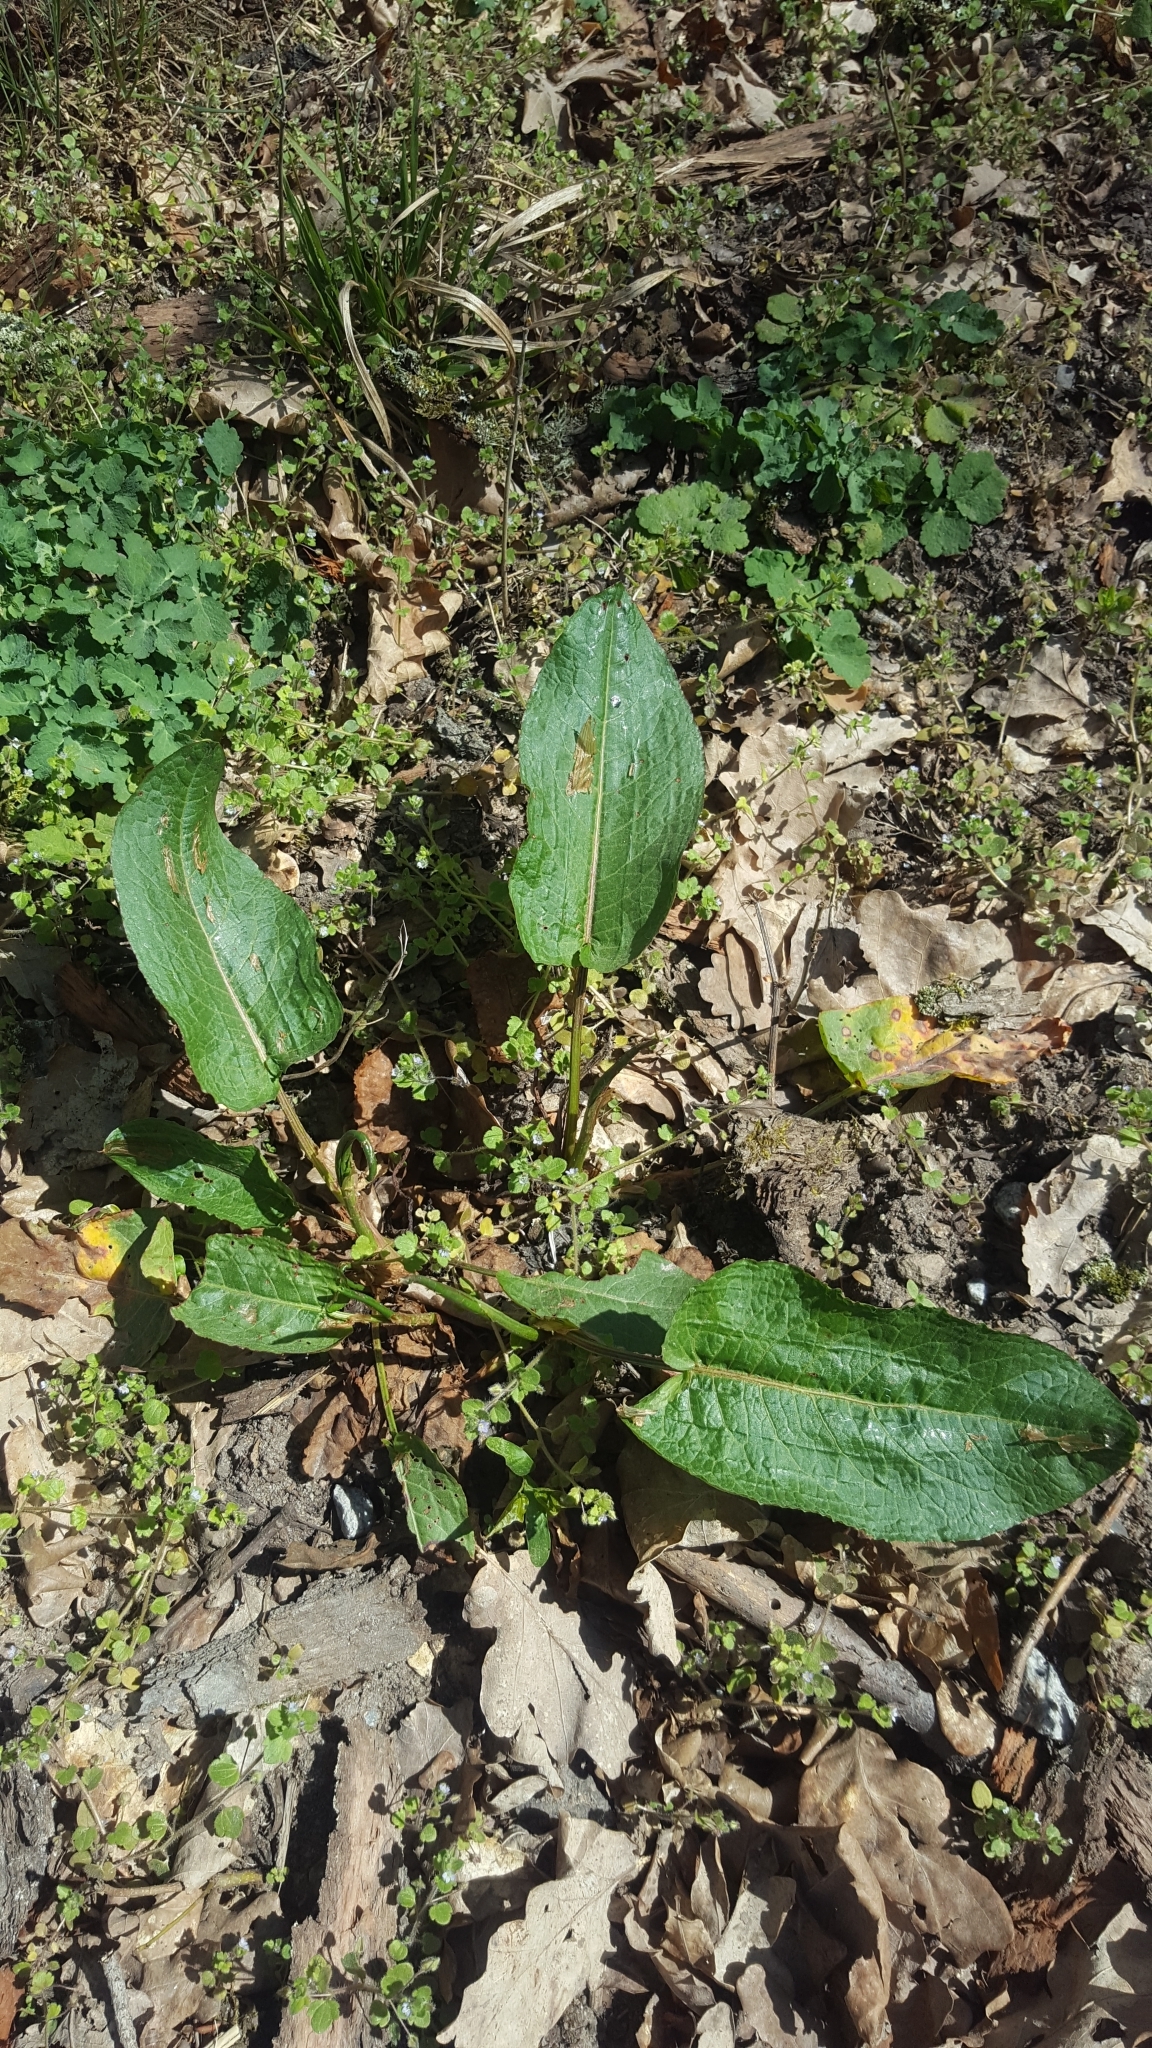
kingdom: Plantae
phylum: Tracheophyta
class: Magnoliopsida
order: Ranunculales
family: Papaveraceae
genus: Chelidonium
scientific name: Chelidonium majus
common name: Greater celandine
